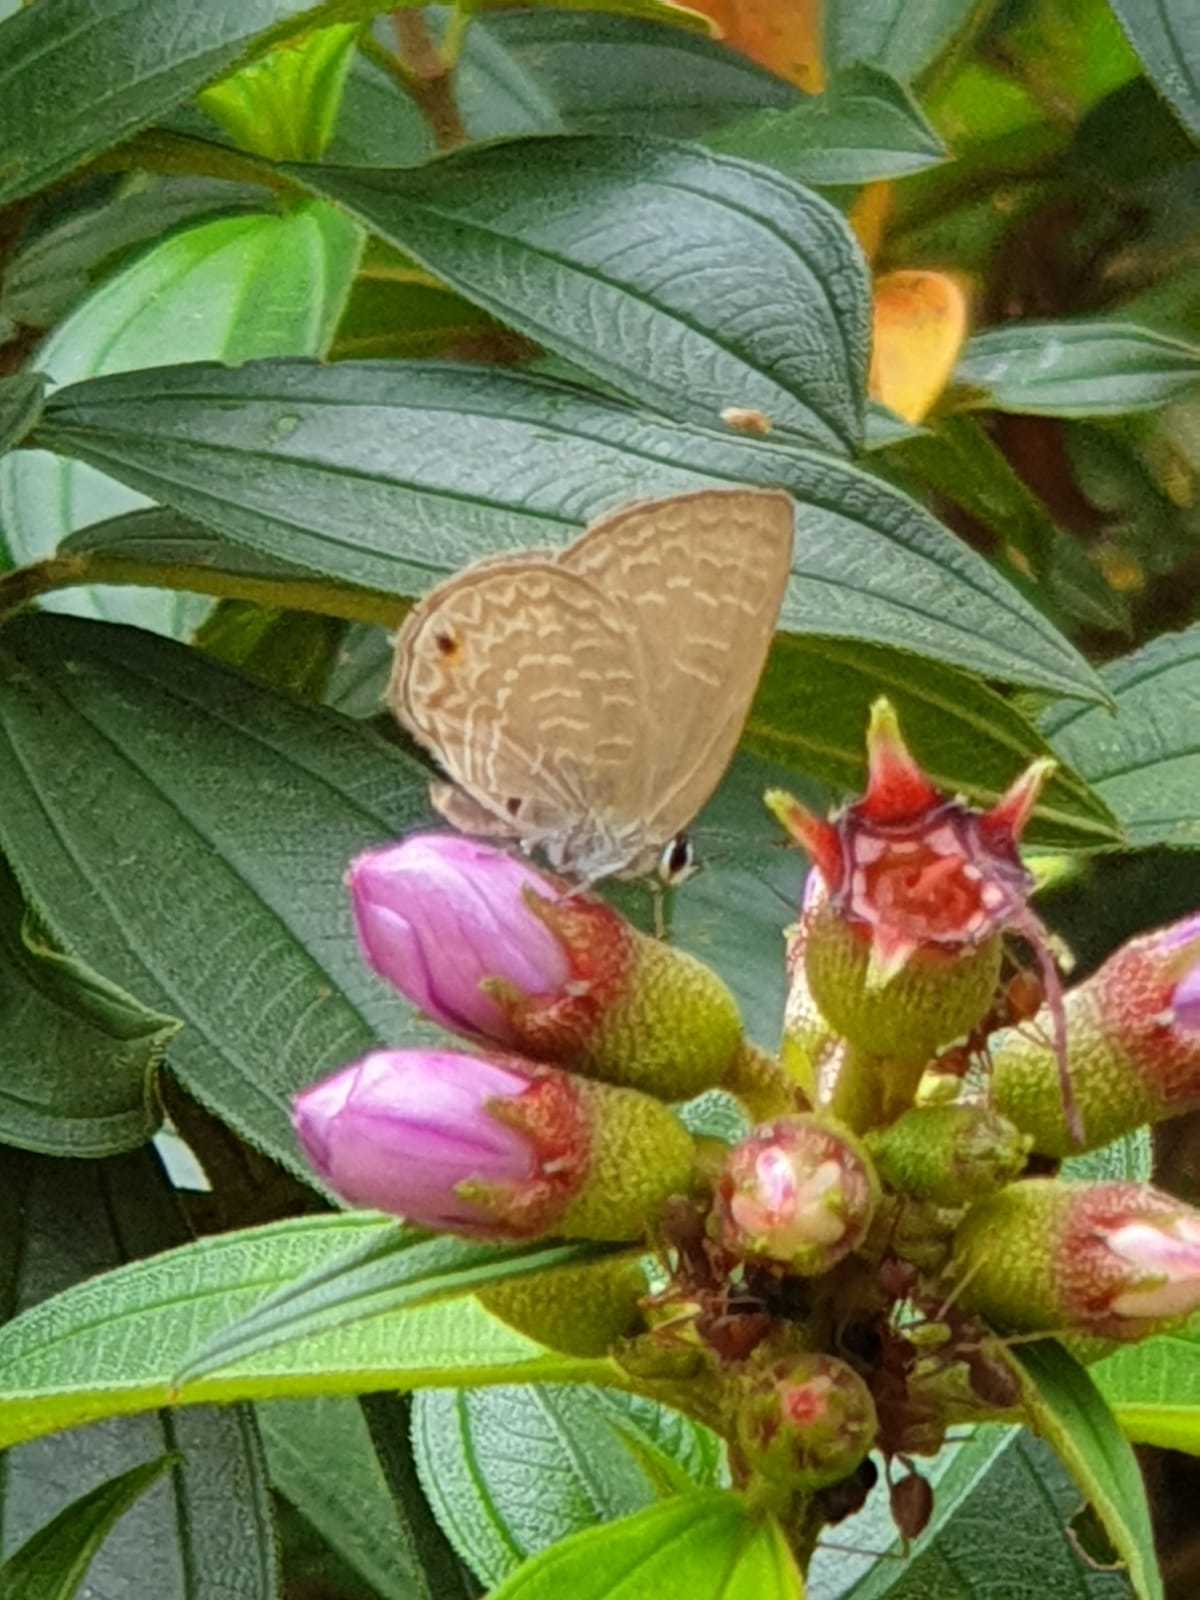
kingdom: Animalia
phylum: Arthropoda
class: Insecta
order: Lepidoptera
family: Lycaenidae
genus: Anthene
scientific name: Anthene emolus
